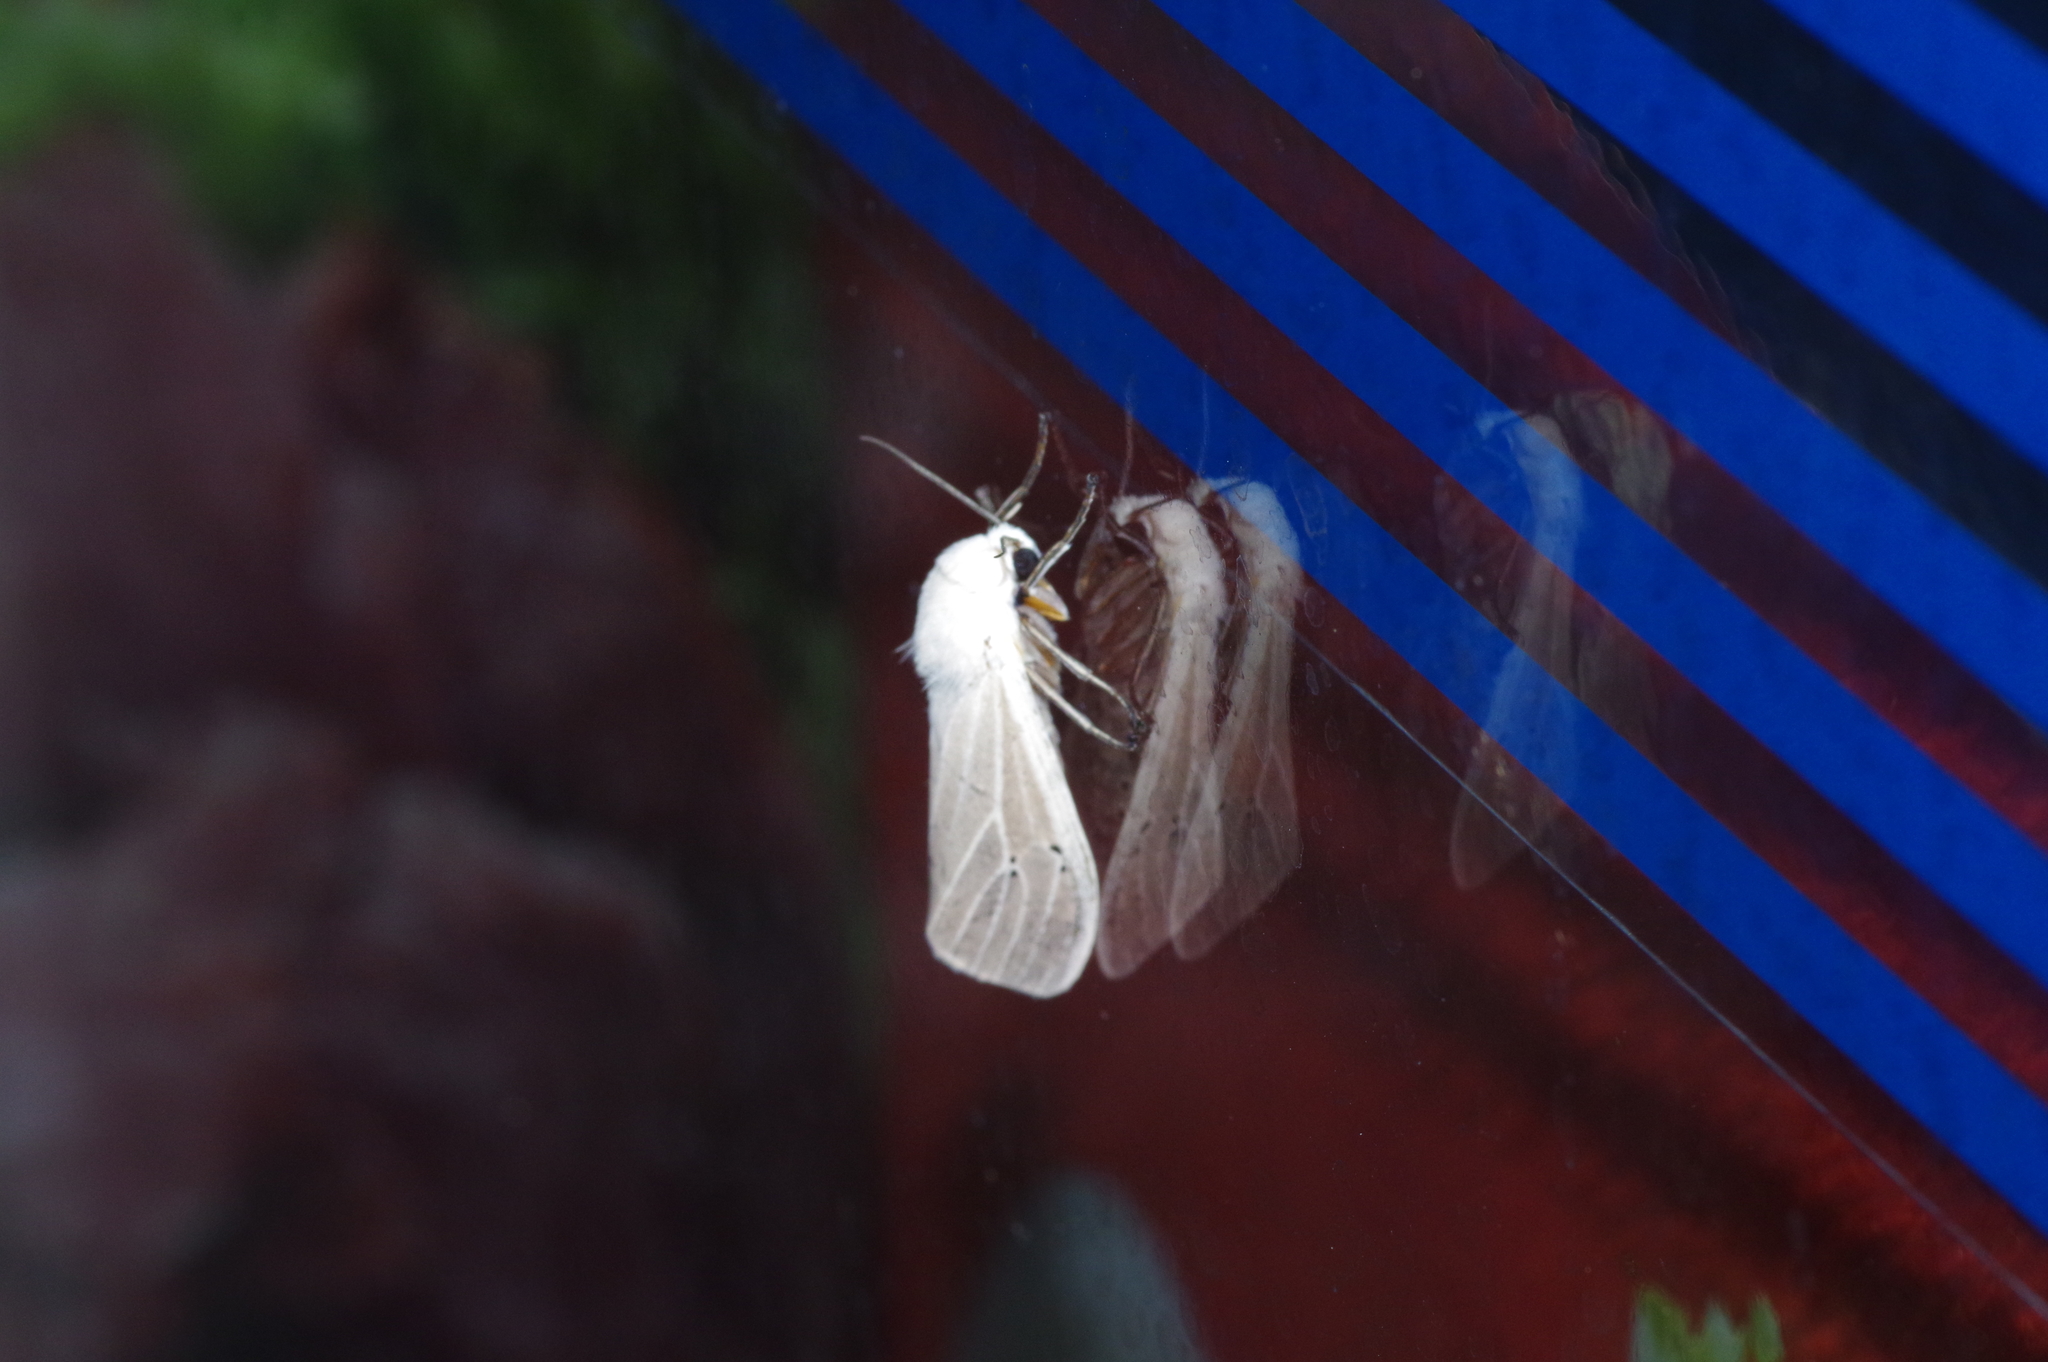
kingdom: Animalia
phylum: Arthropoda
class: Insecta
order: Lepidoptera
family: Erebidae
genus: Creatonotos
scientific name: Creatonotos transiens
